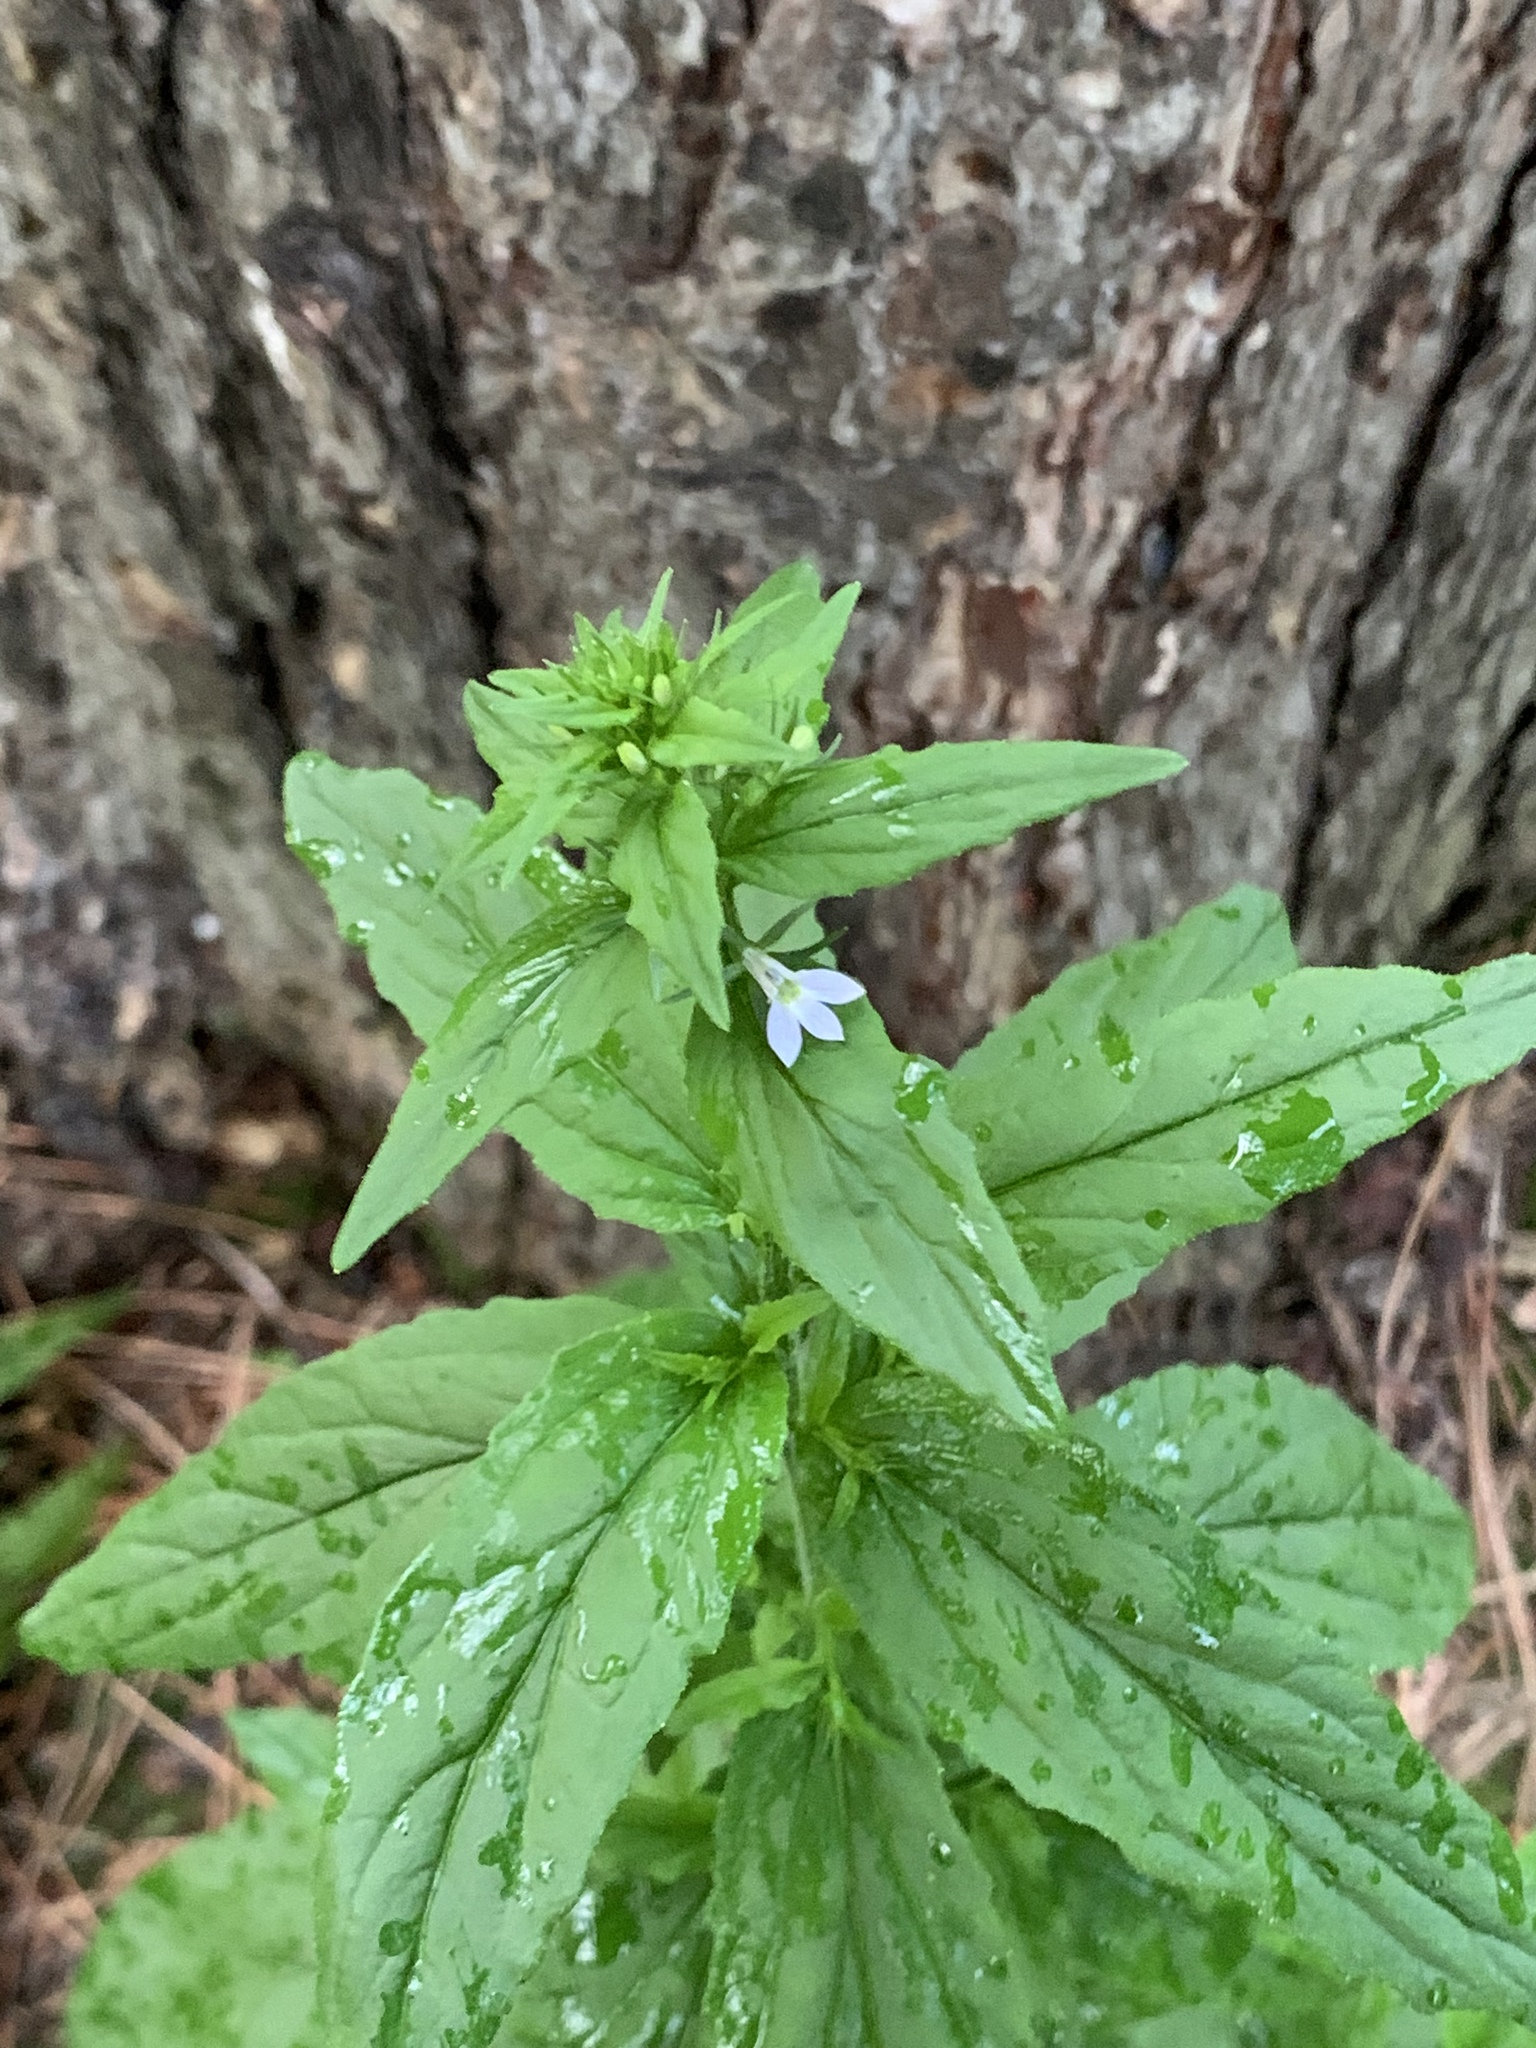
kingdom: Plantae
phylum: Tracheophyta
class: Magnoliopsida
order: Asterales
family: Campanulaceae
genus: Lobelia
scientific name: Lobelia inflata
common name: Indian tobacco
